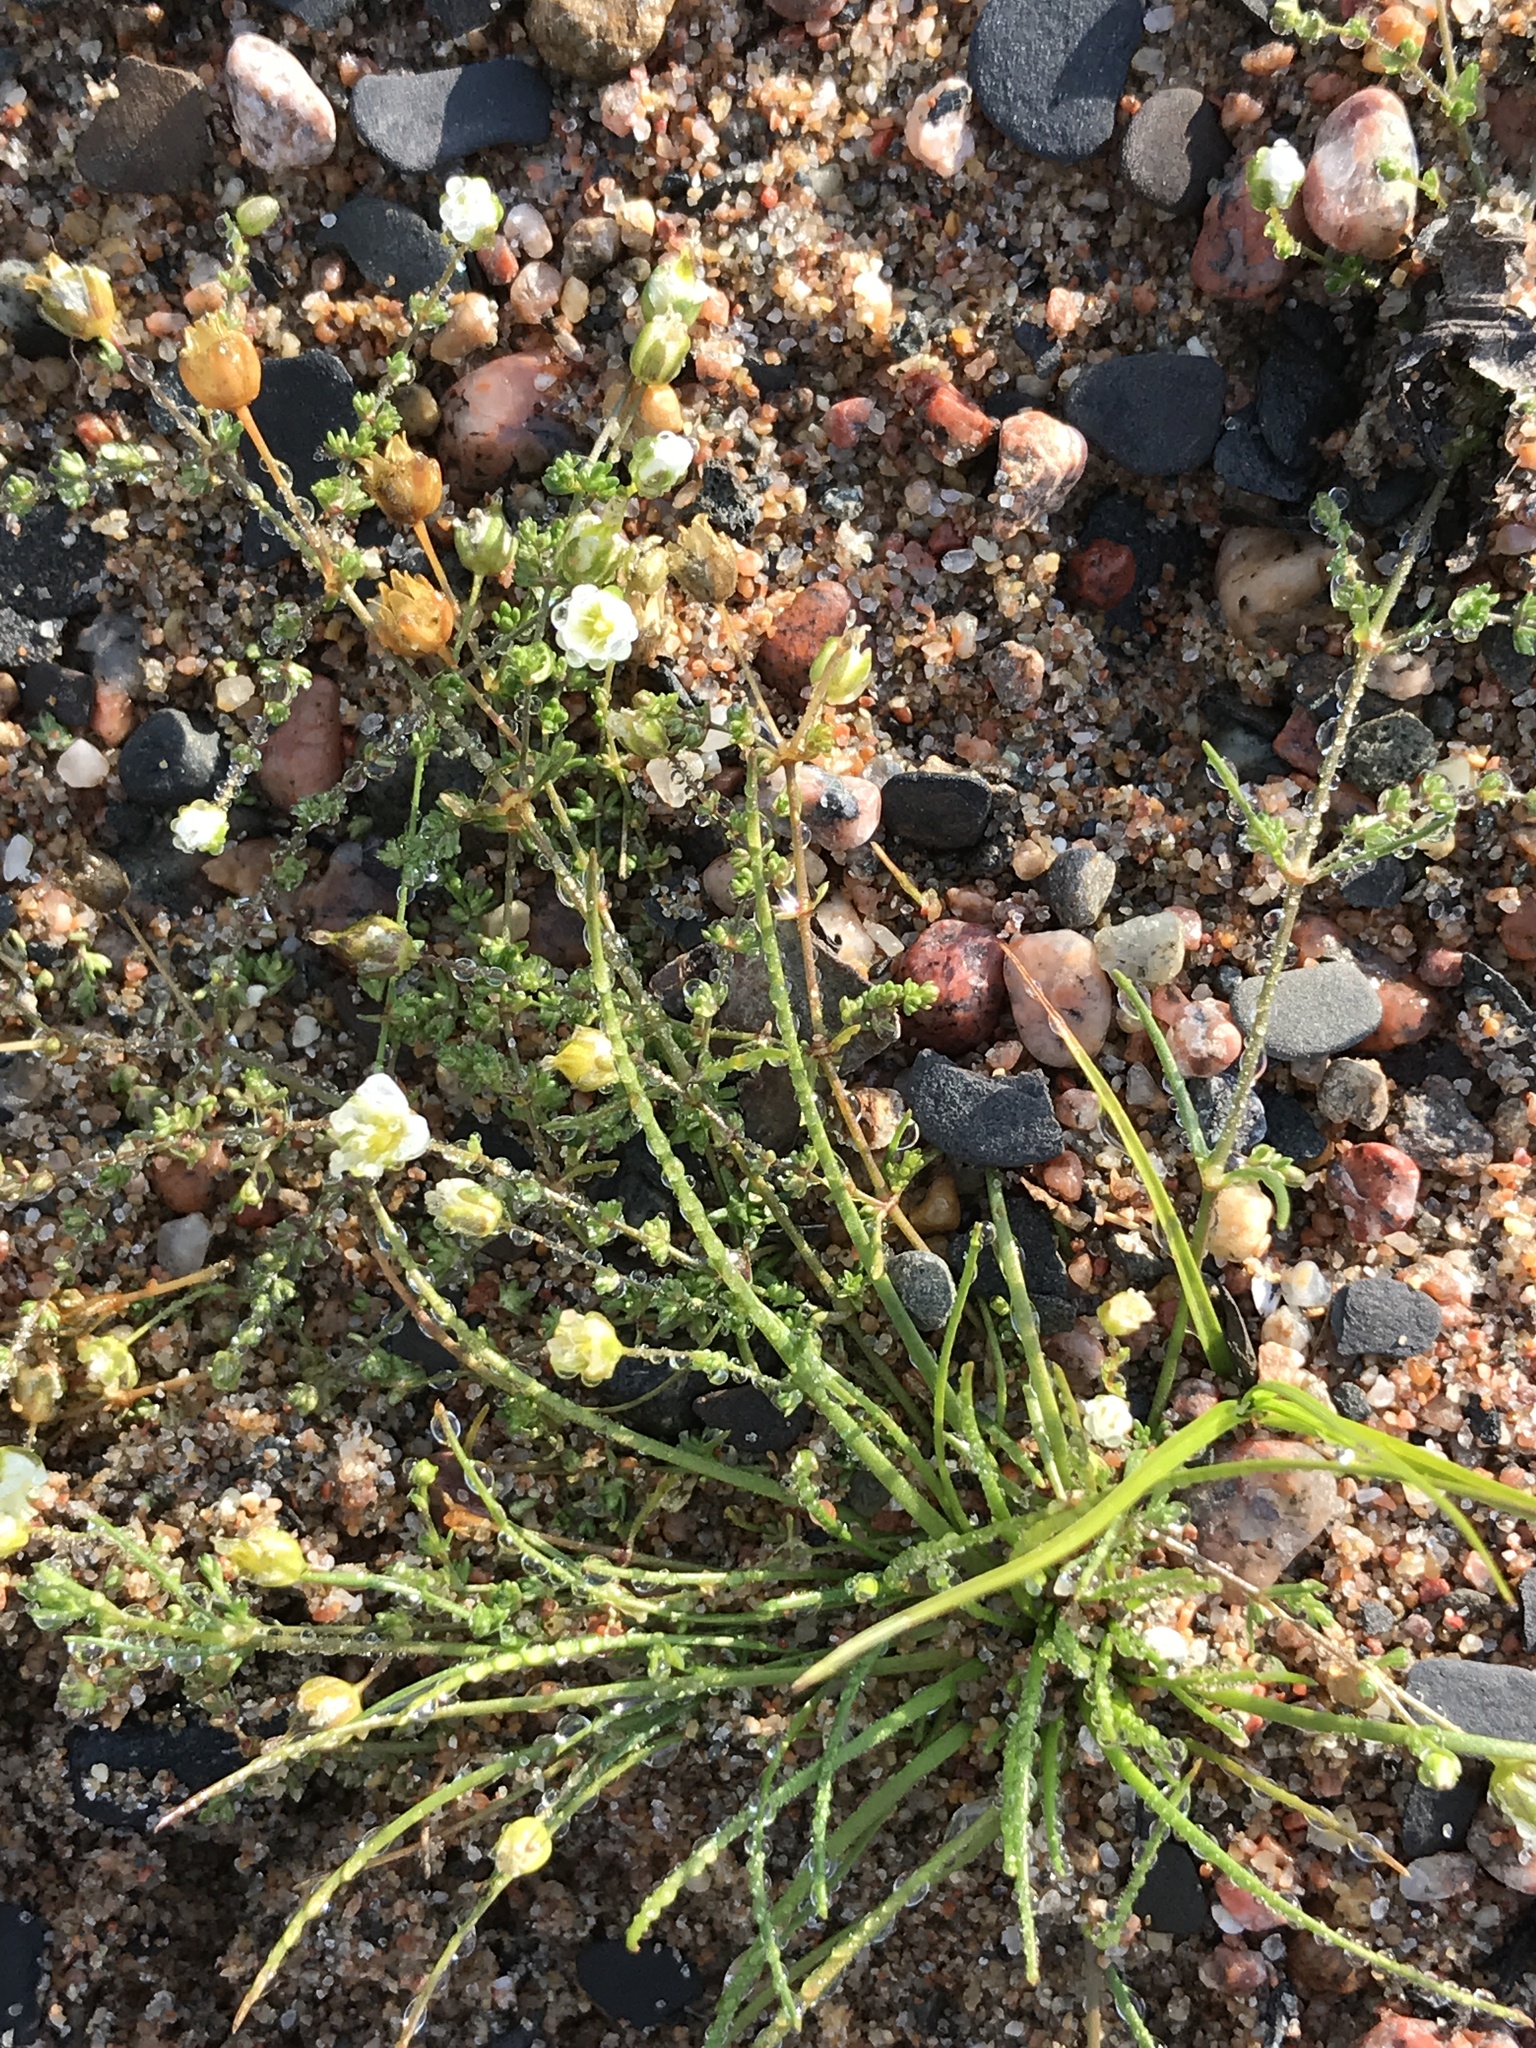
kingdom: Plantae
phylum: Tracheophyta
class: Magnoliopsida
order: Caryophyllales
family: Caryophyllaceae
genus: Sagina
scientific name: Sagina nodosa
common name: Knotted pearlwort
